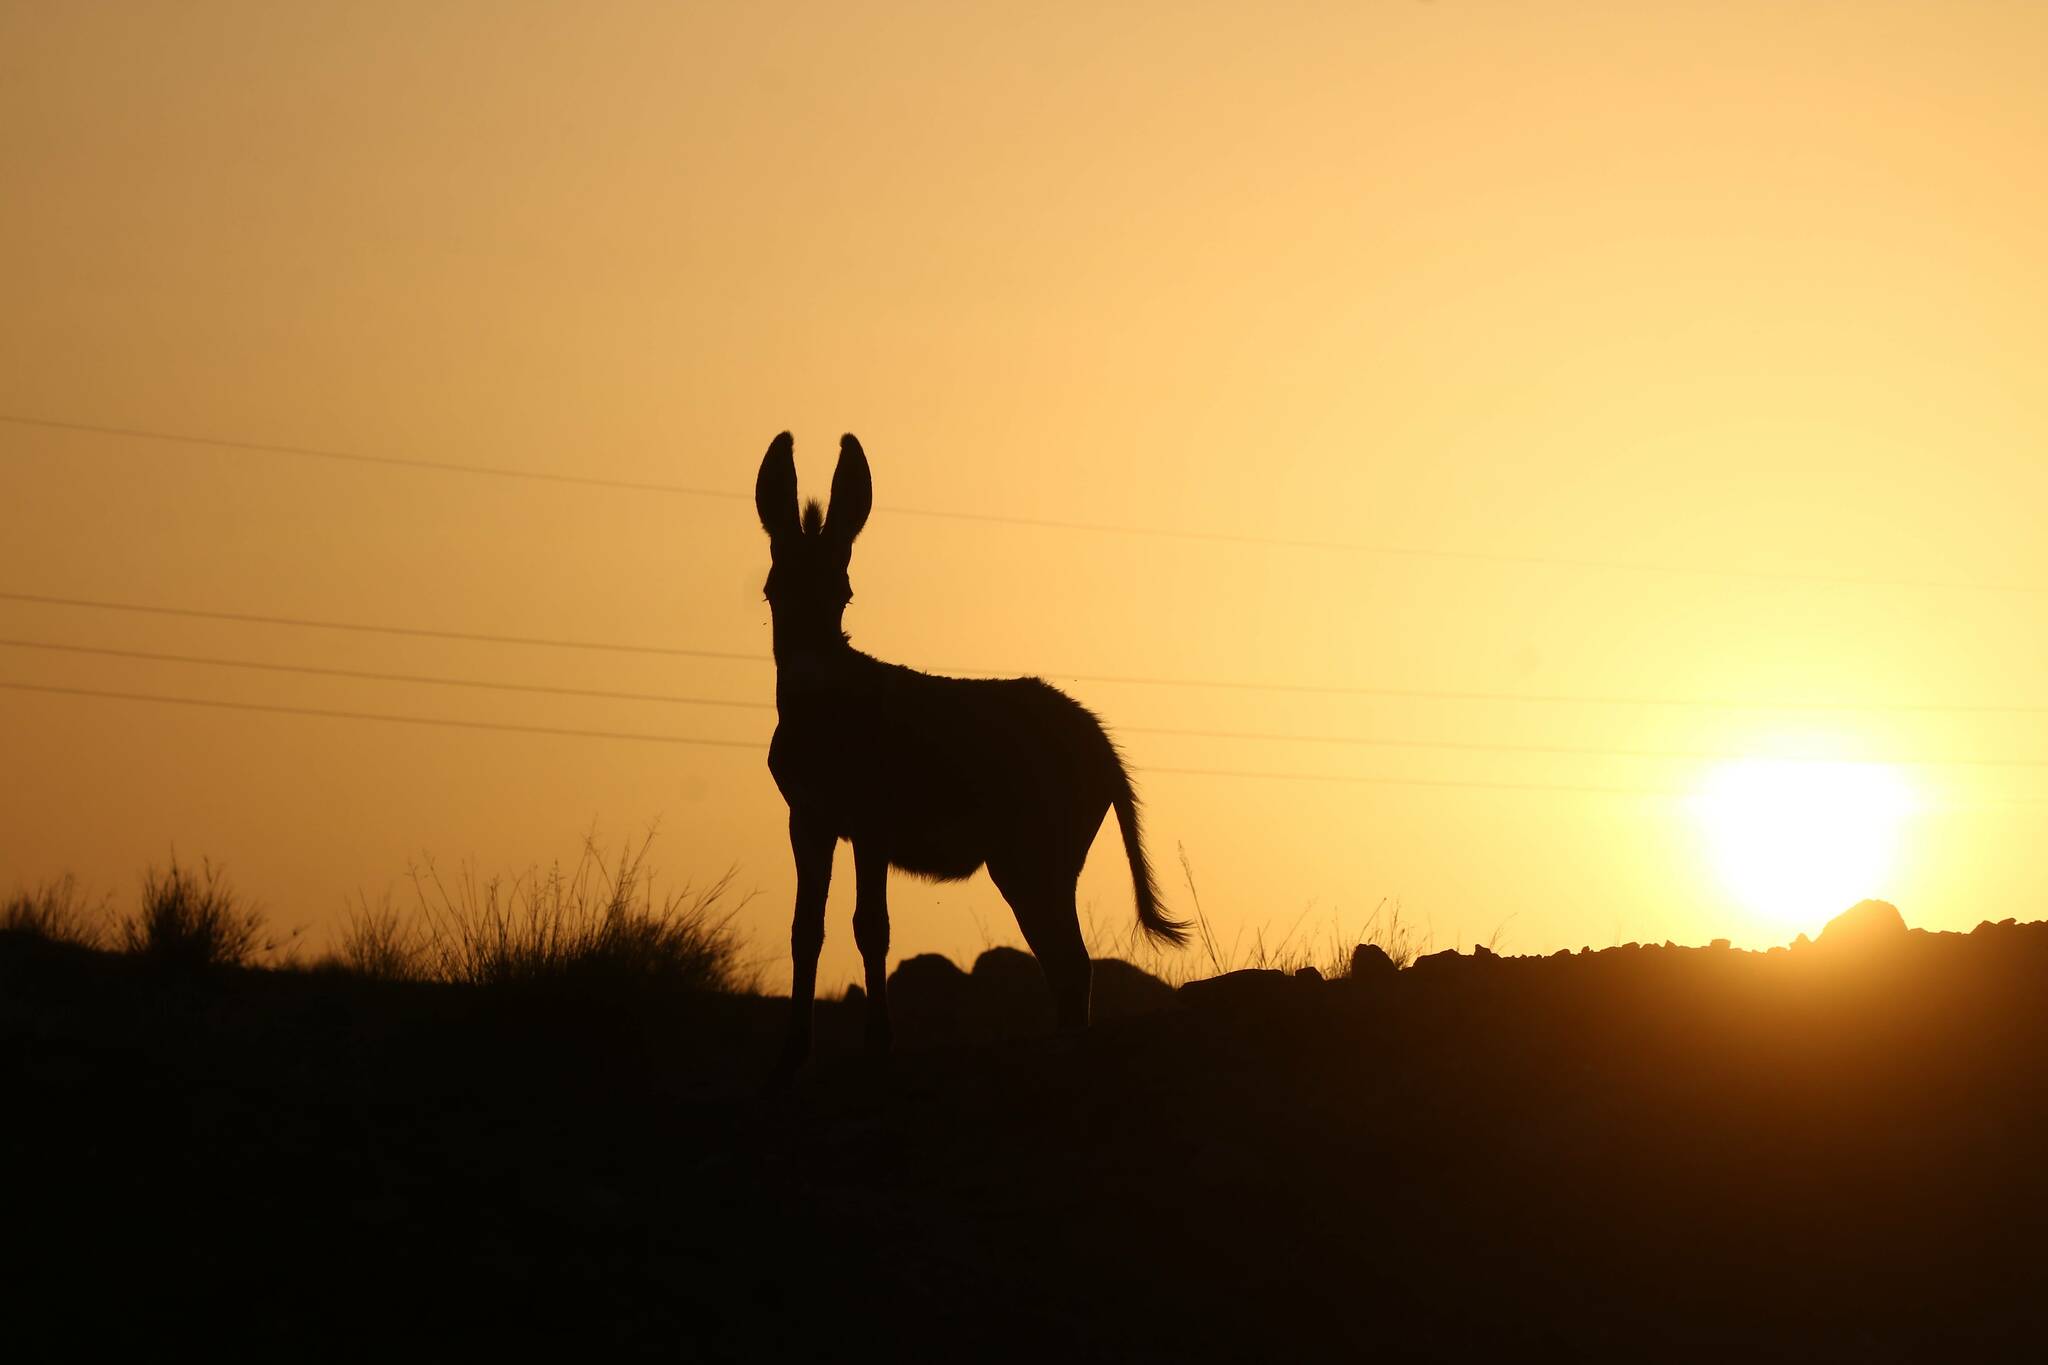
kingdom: Animalia
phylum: Chordata
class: Mammalia
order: Perissodactyla
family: Equidae
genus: Equus
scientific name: Equus asinus
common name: Ass
